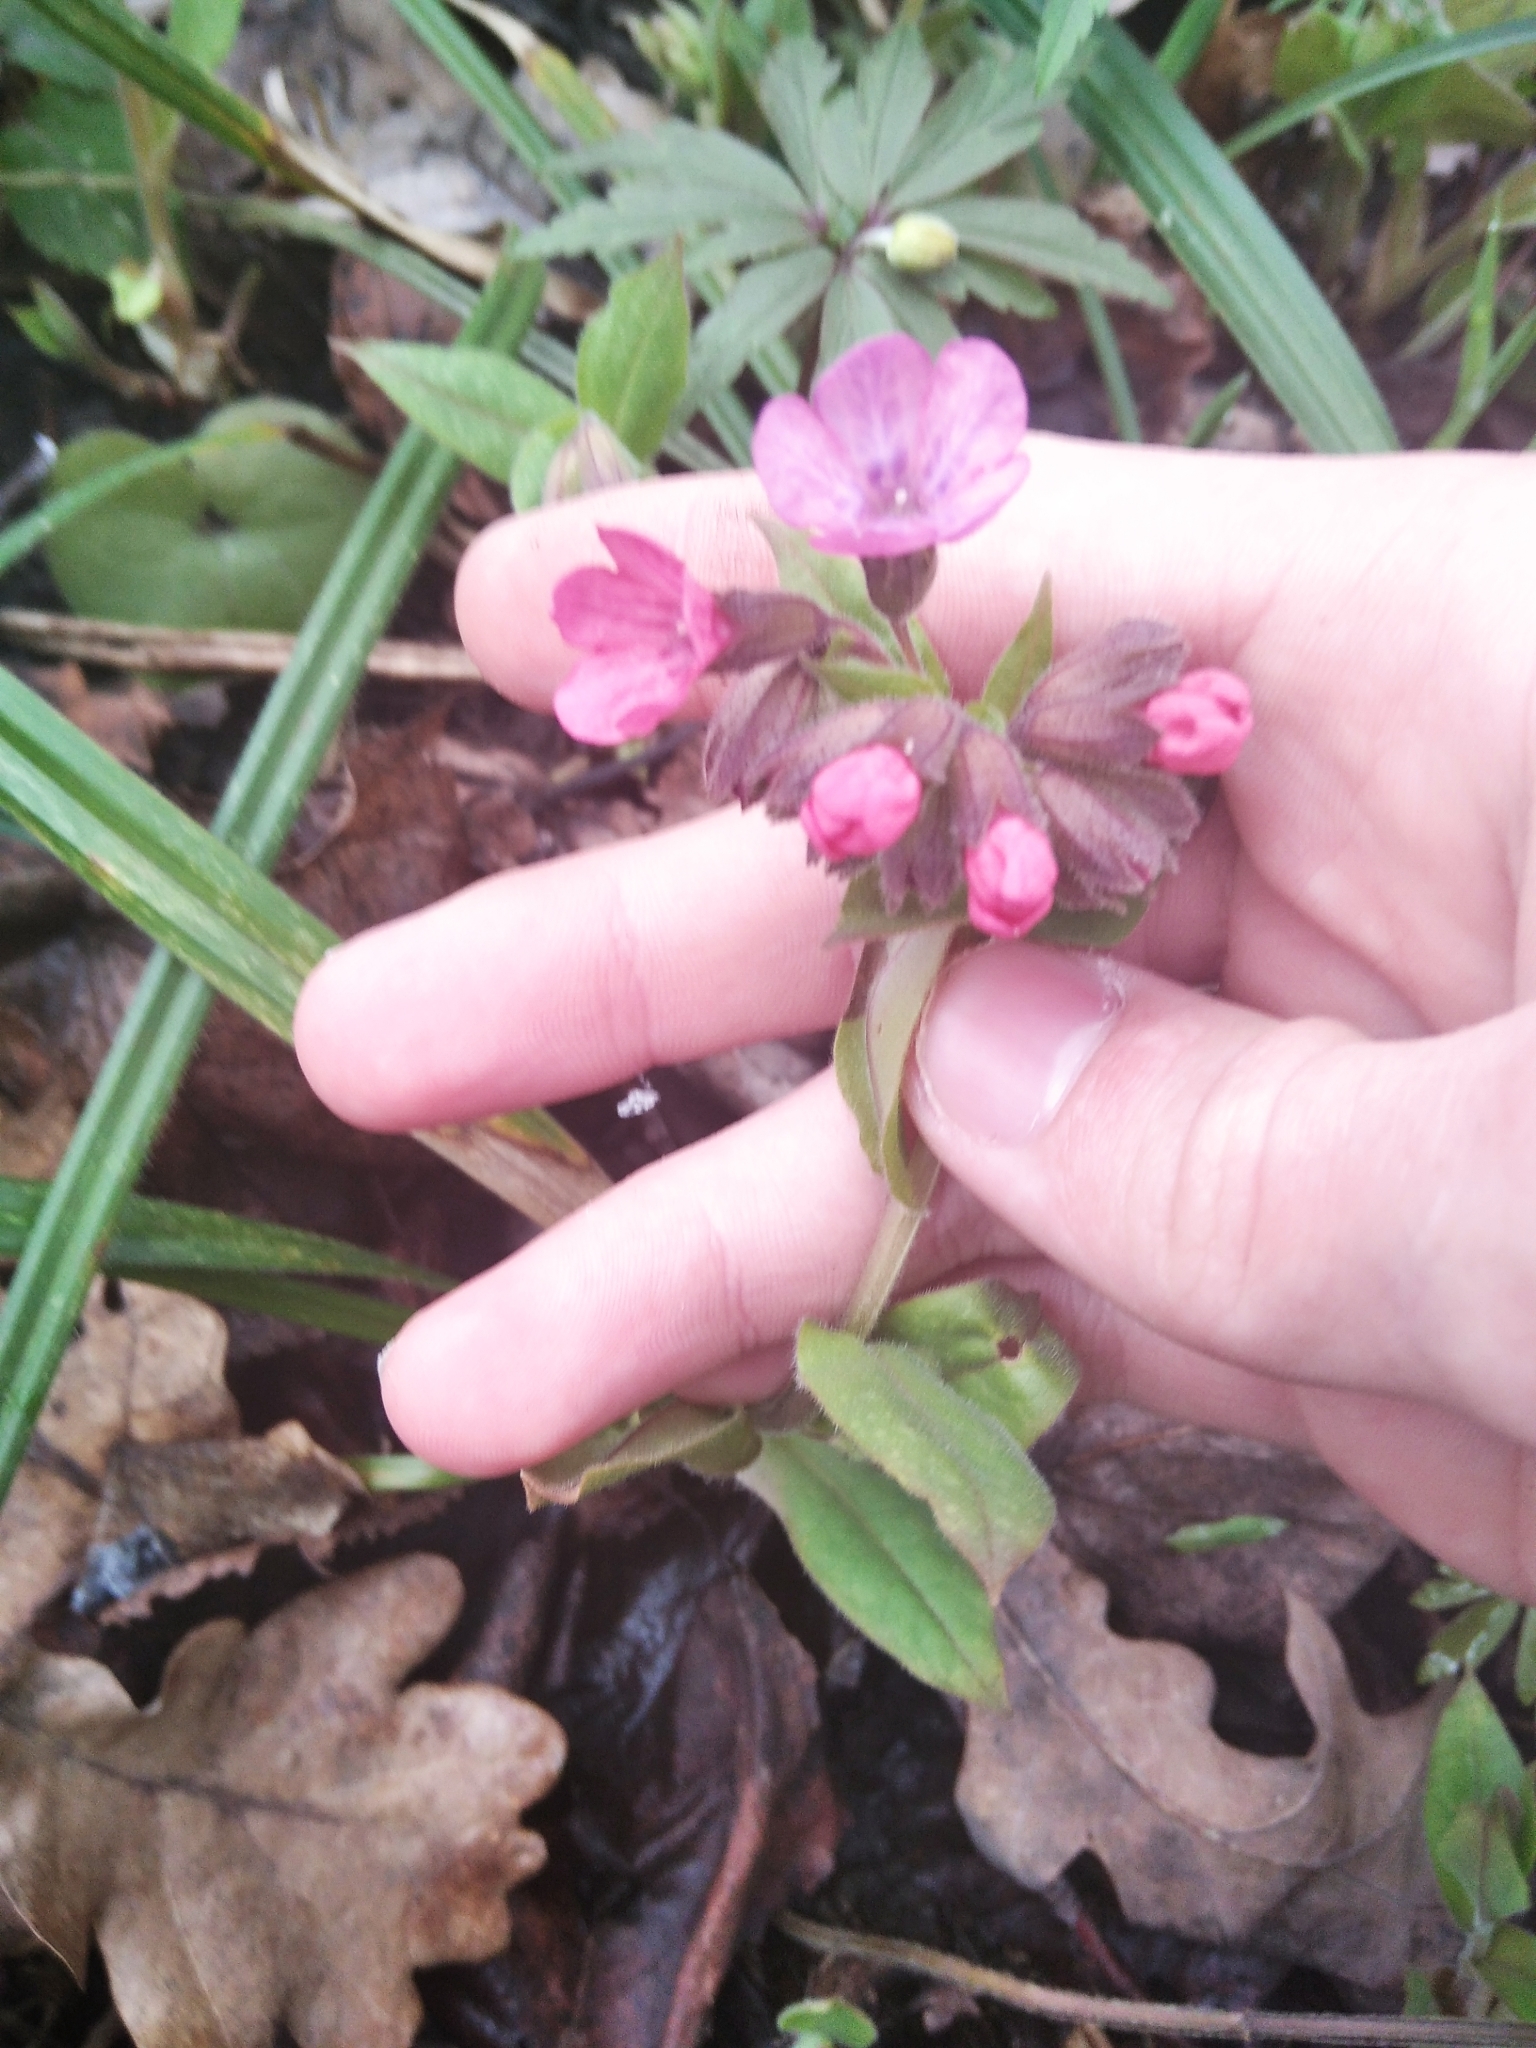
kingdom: Plantae
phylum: Tracheophyta
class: Magnoliopsida
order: Boraginales
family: Boraginaceae
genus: Pulmonaria
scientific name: Pulmonaria obscura
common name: Suffolk lungwort
